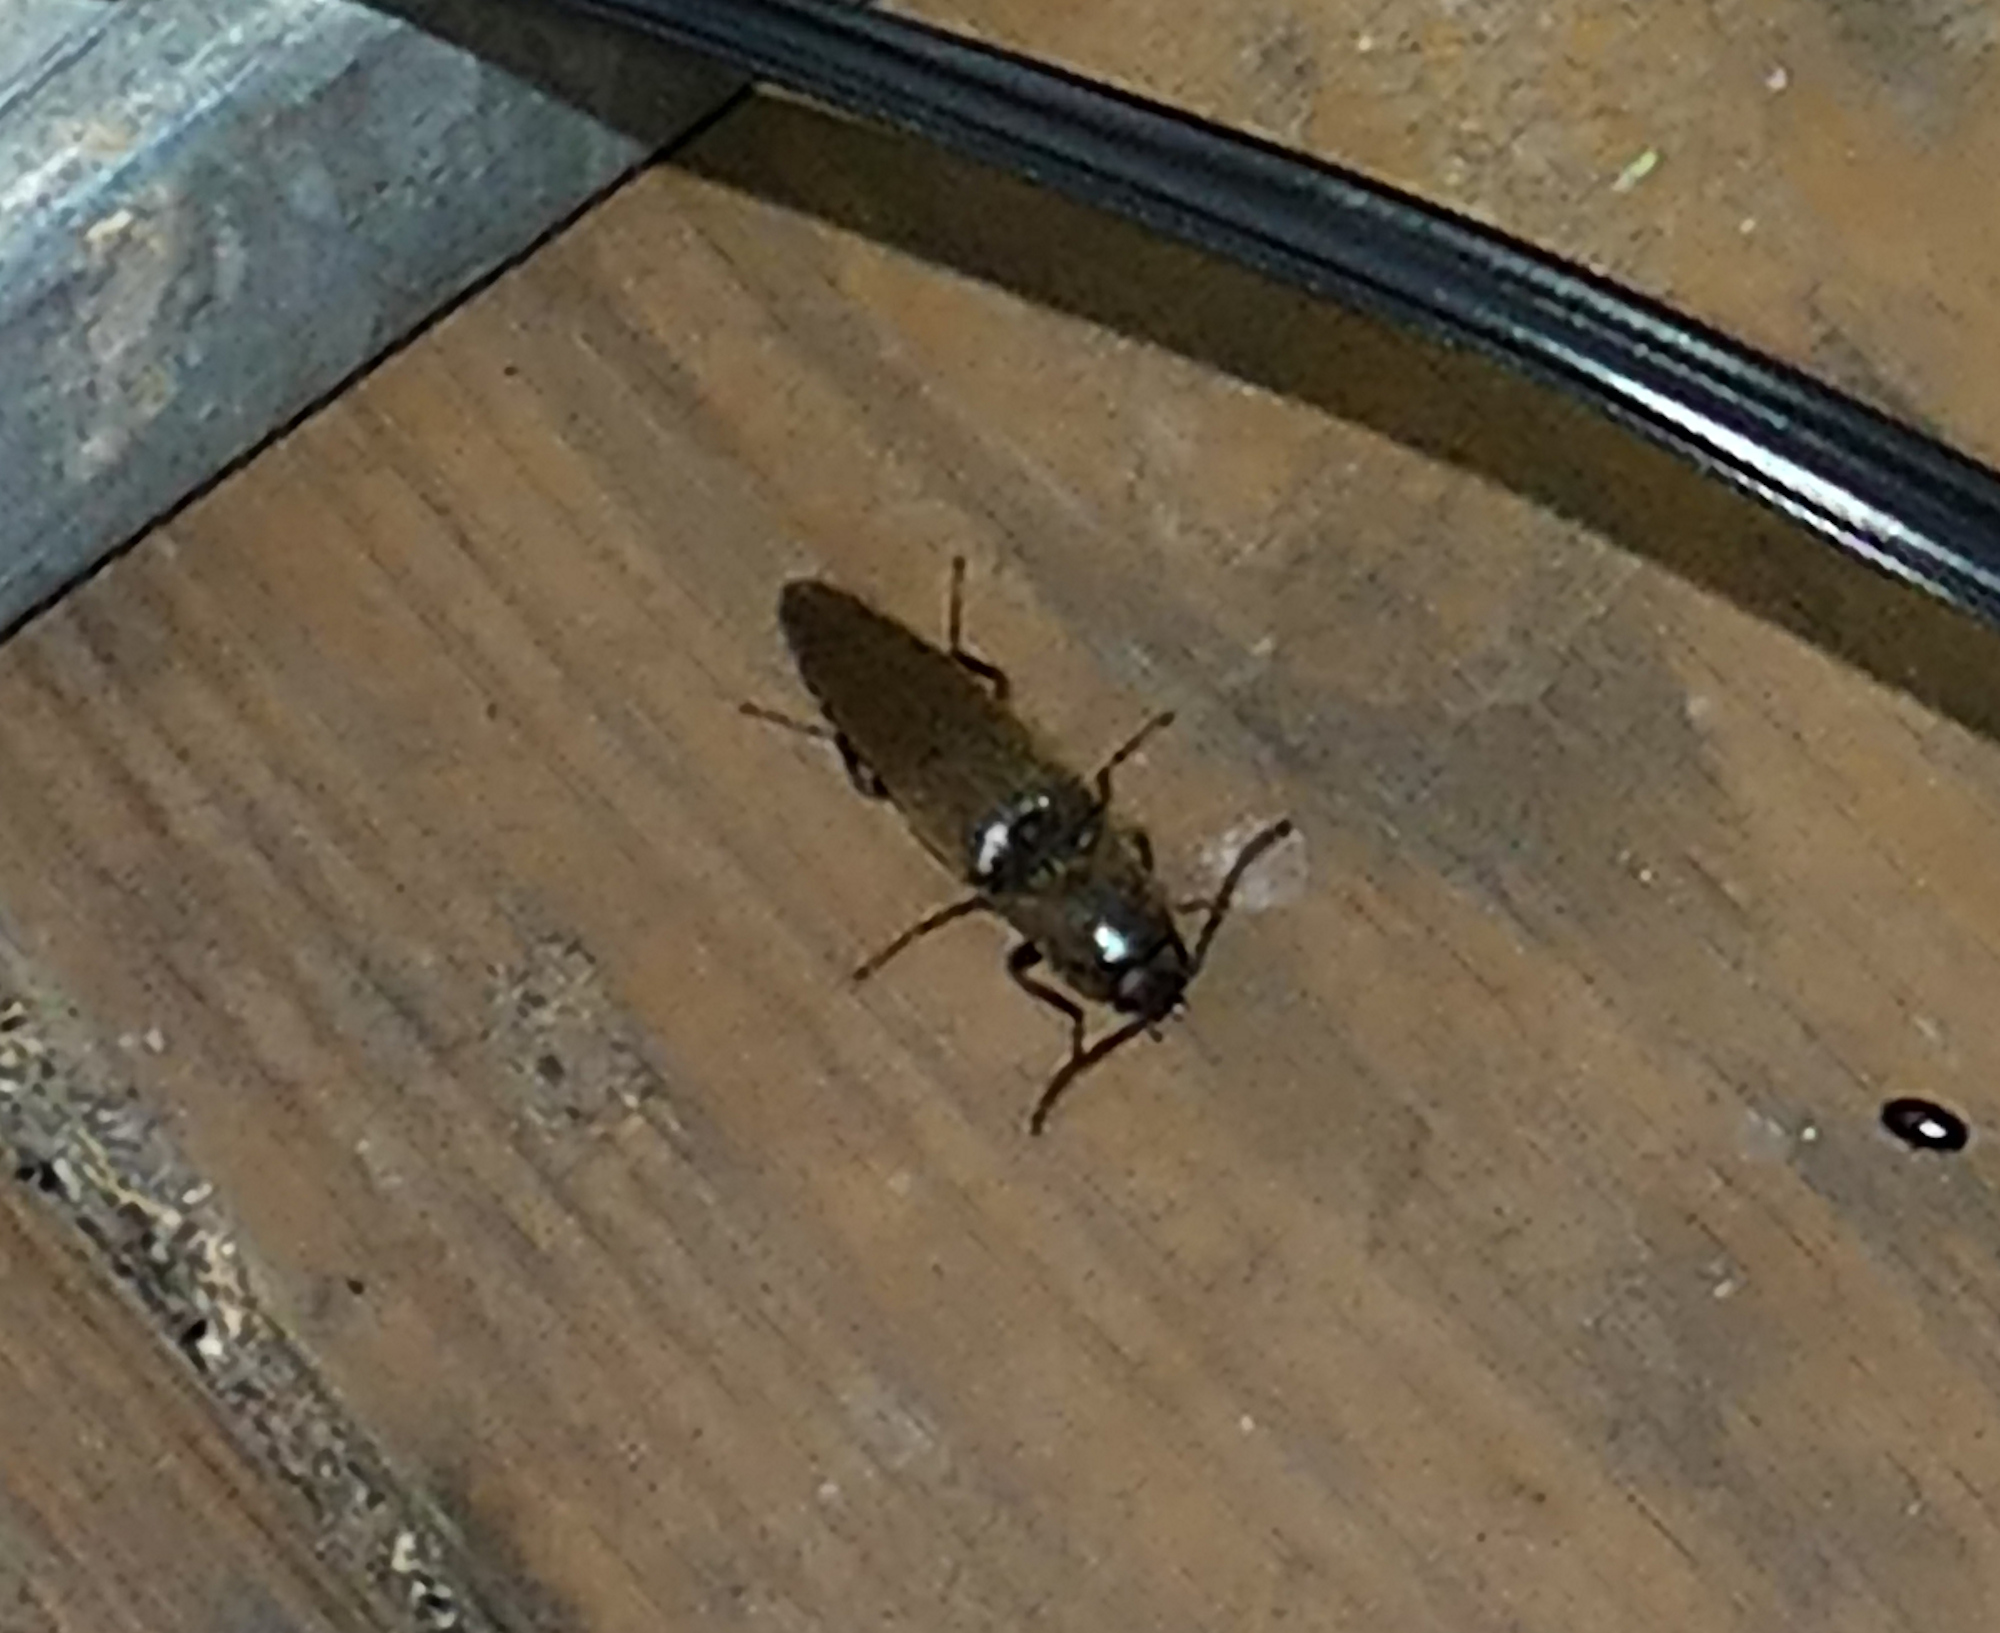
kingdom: Animalia
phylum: Arthropoda
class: Insecta
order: Coleoptera
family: Elateridae
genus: Orthostethus
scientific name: Orthostethus infuscatus
